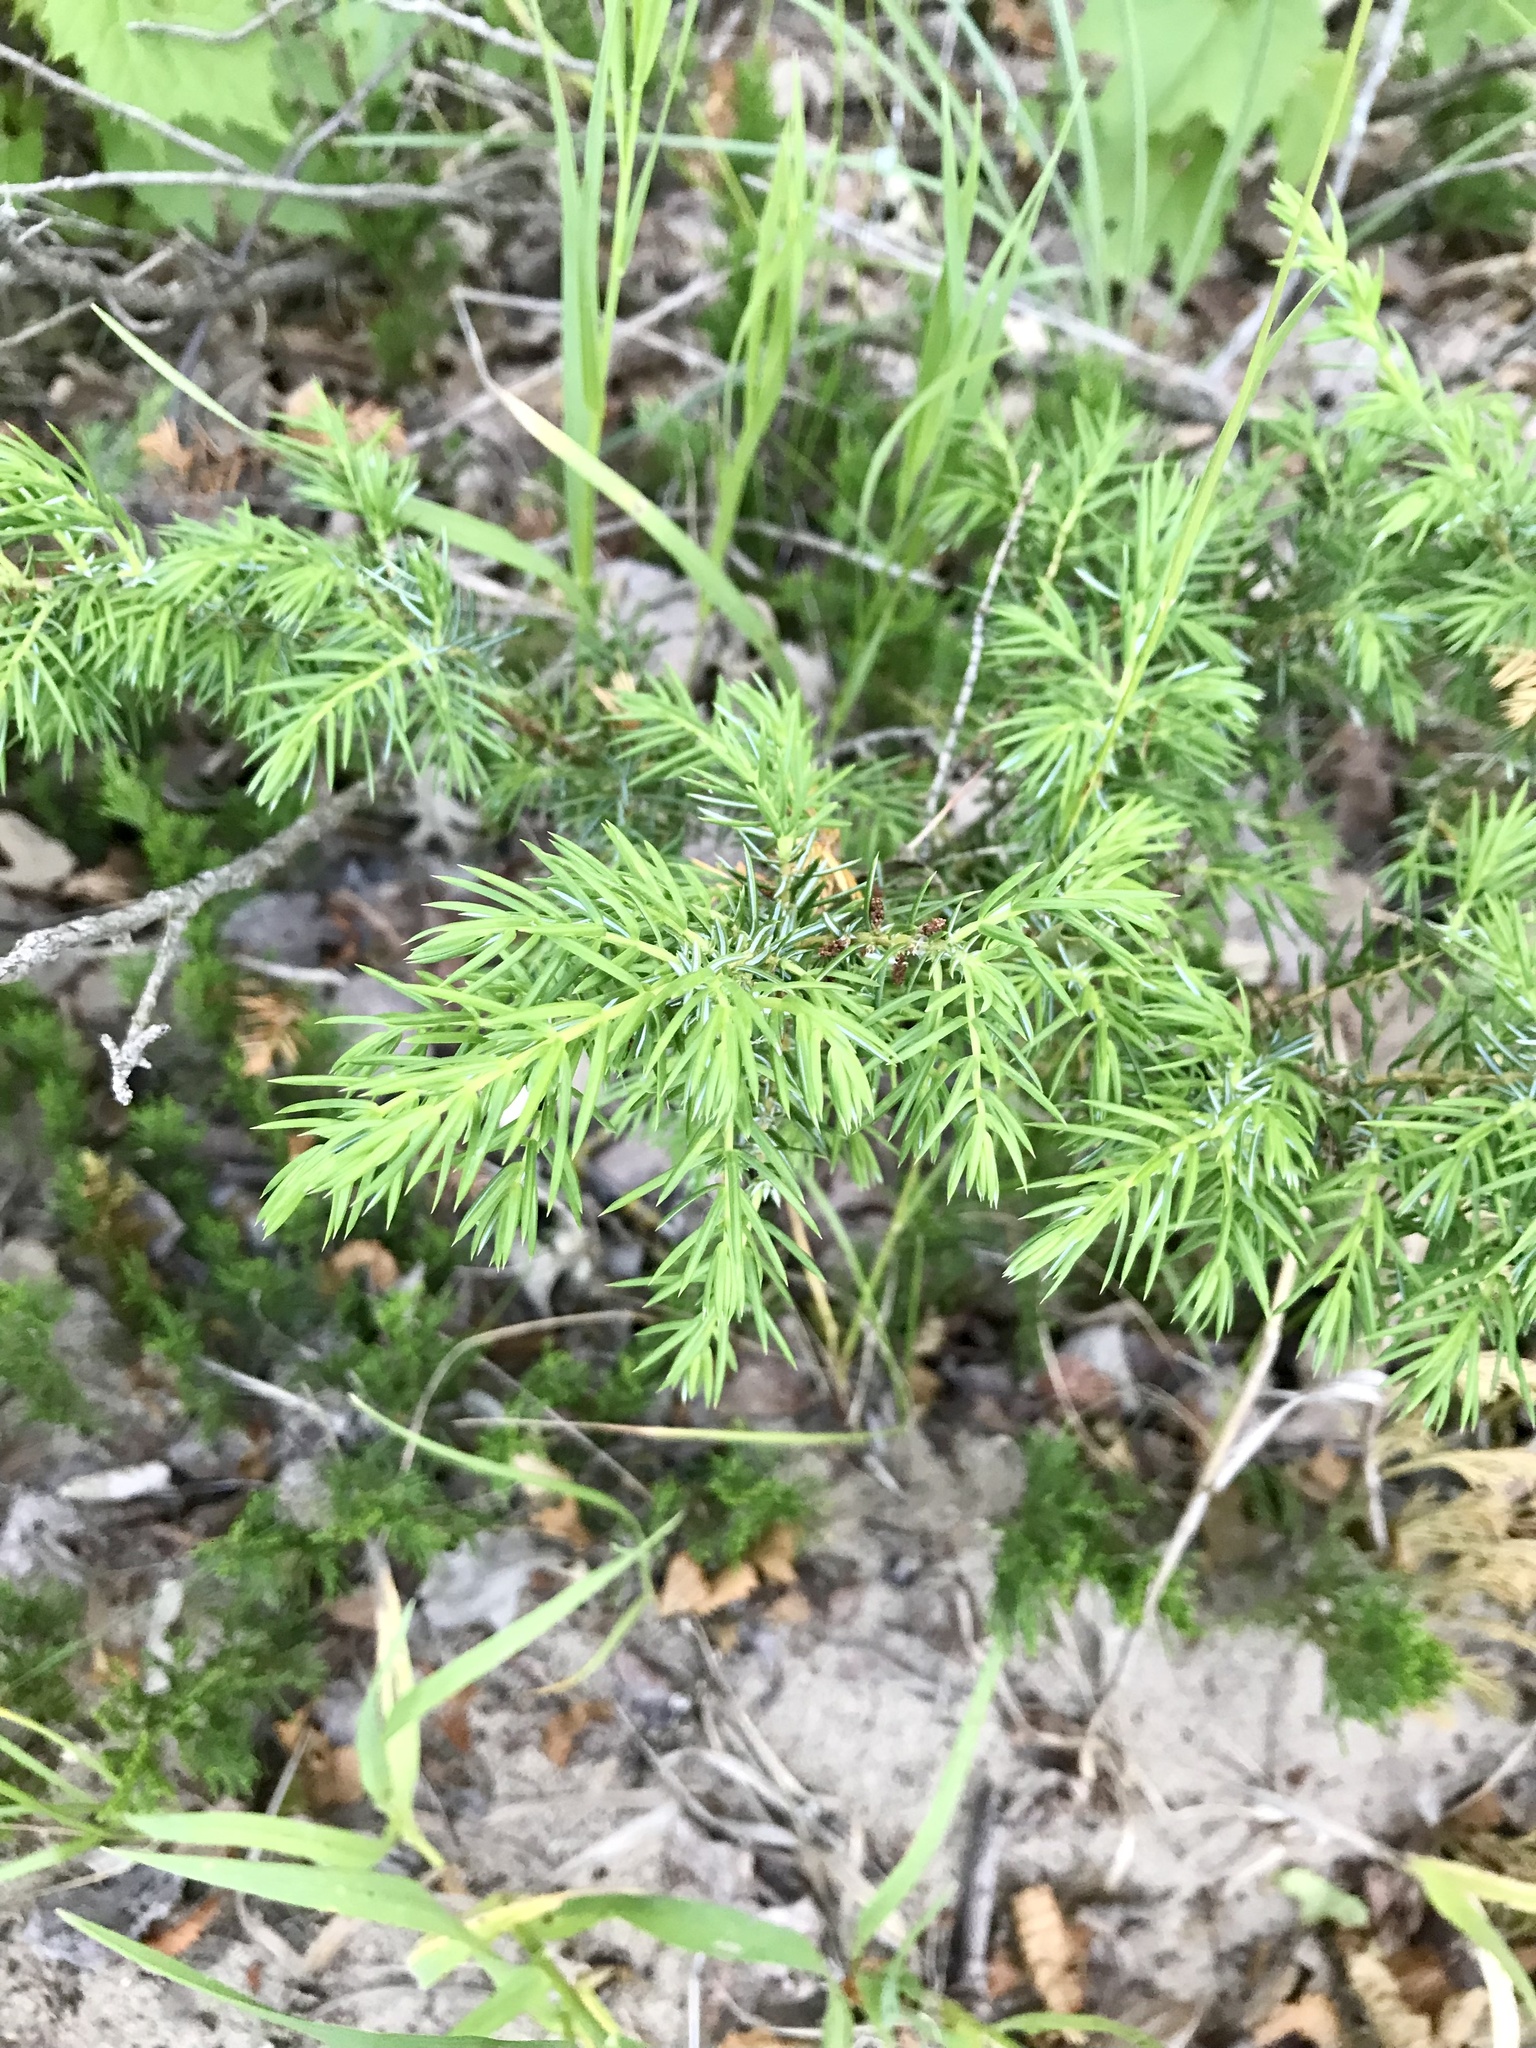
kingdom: Plantae
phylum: Tracheophyta
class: Pinopsida
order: Pinales
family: Cupressaceae
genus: Juniperus
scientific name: Juniperus communis
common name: Common juniper
